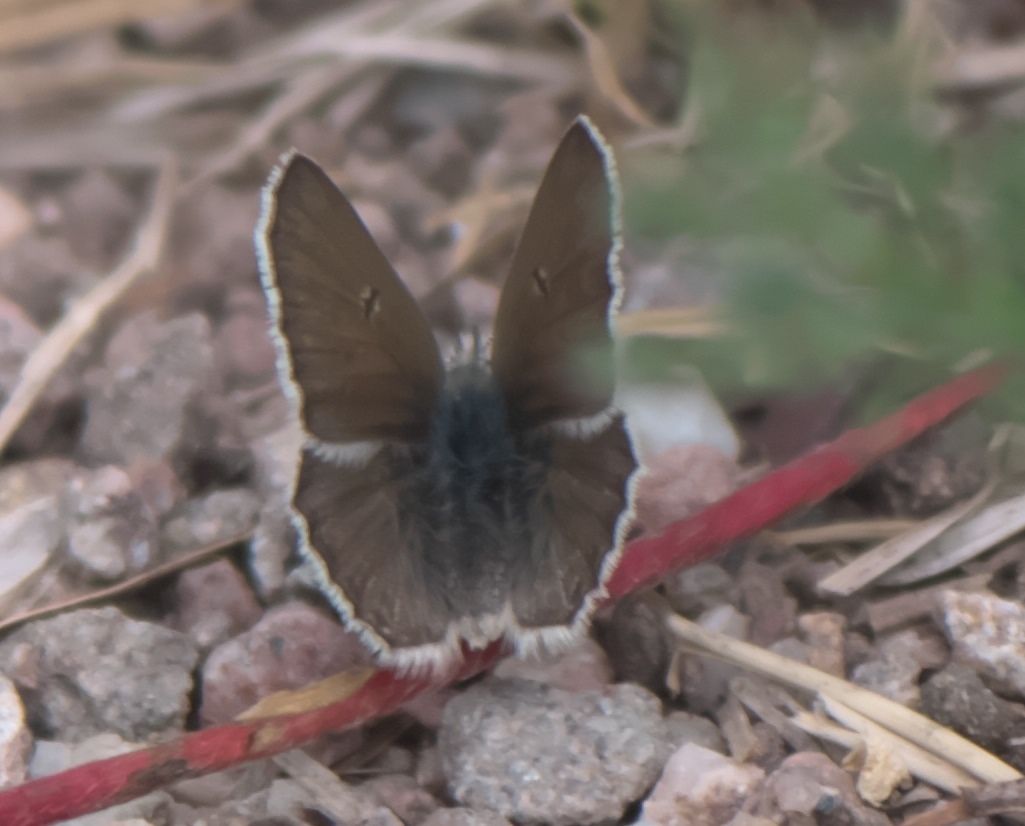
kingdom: Animalia
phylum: Arthropoda
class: Insecta
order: Lepidoptera
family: Lycaenidae
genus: Agriades
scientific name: Agriades glandon
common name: Glandon blue
